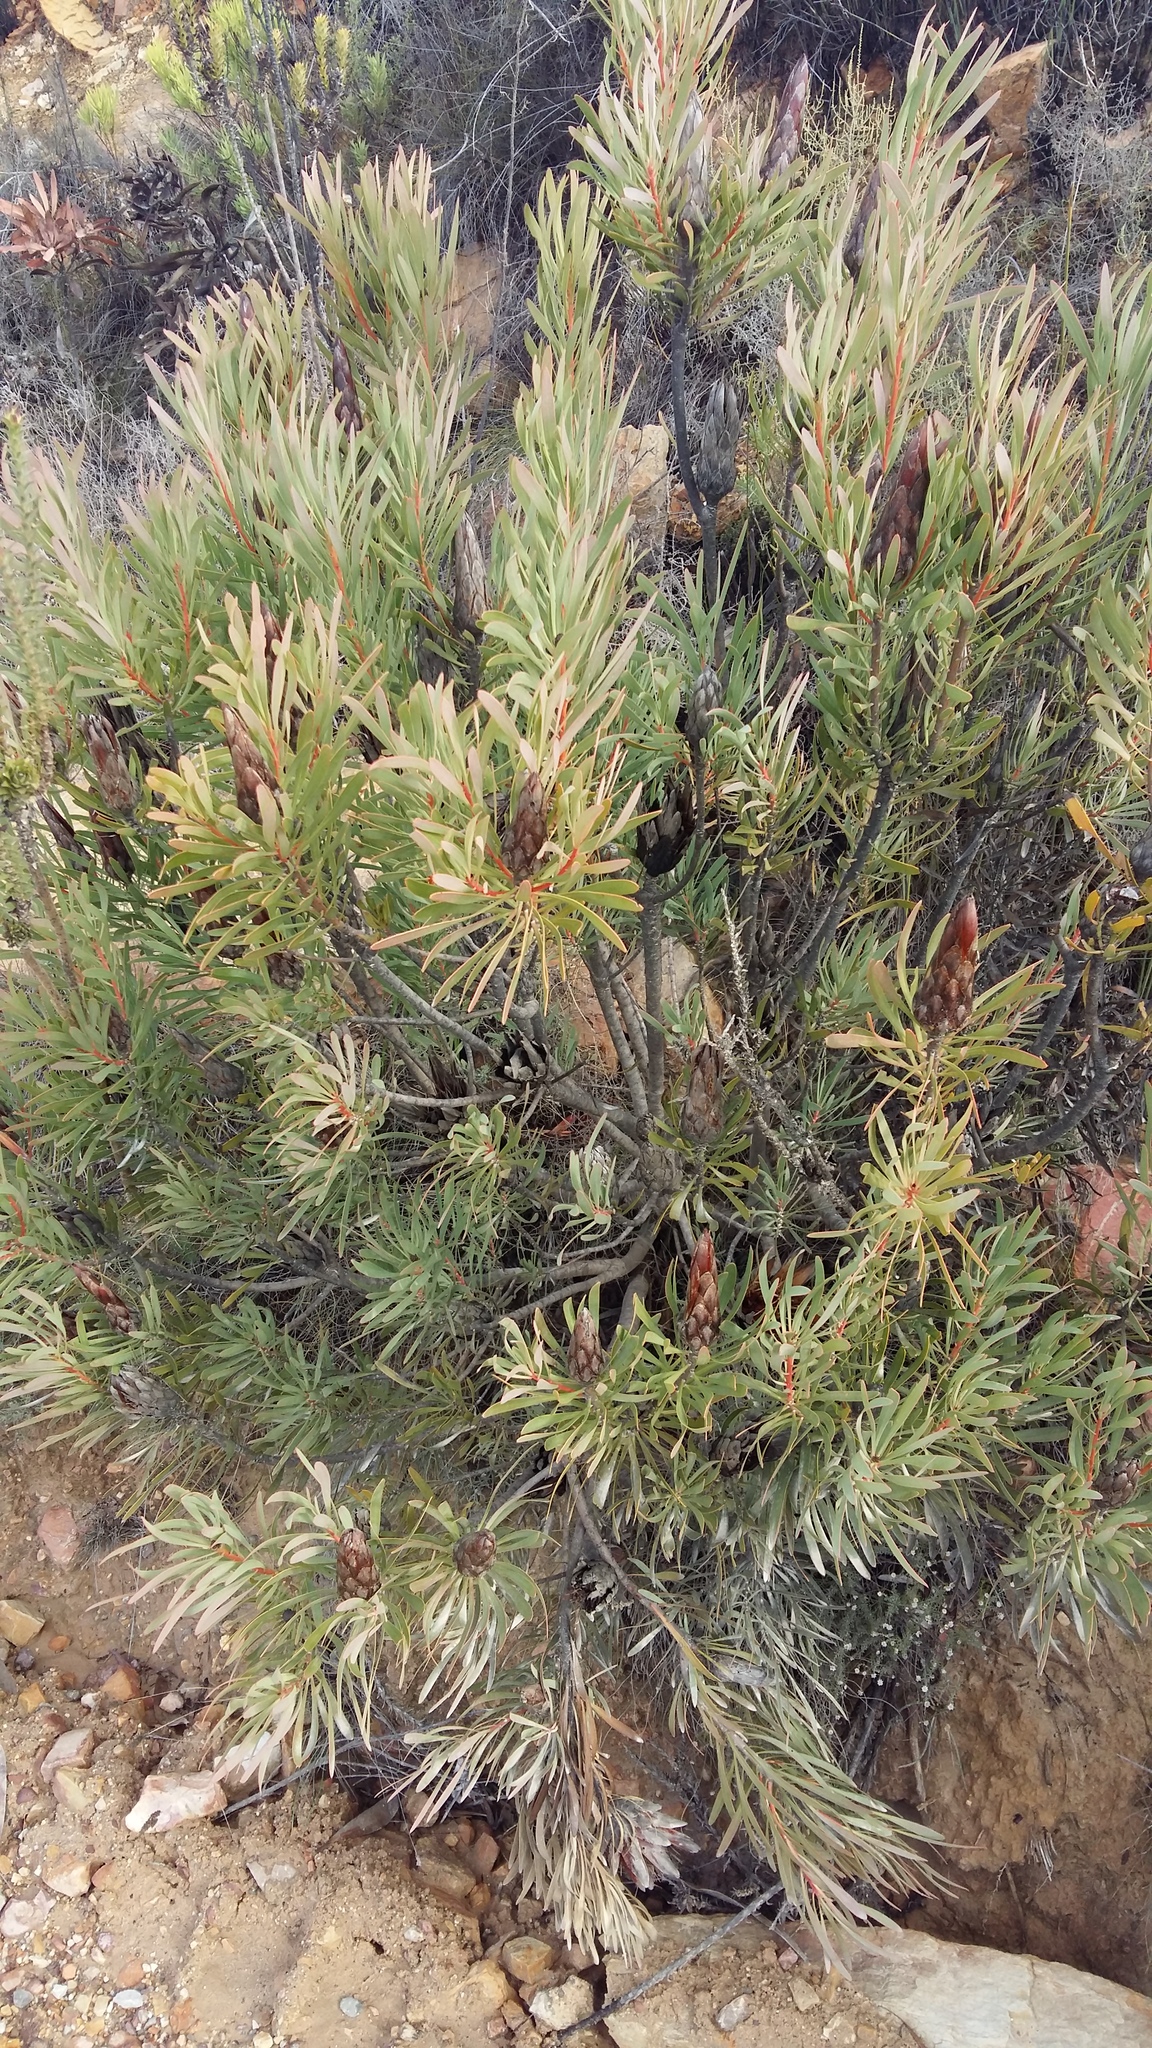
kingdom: Plantae
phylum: Tracheophyta
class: Magnoliopsida
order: Proteales
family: Proteaceae
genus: Protea
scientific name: Protea repens
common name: Sugarbush
